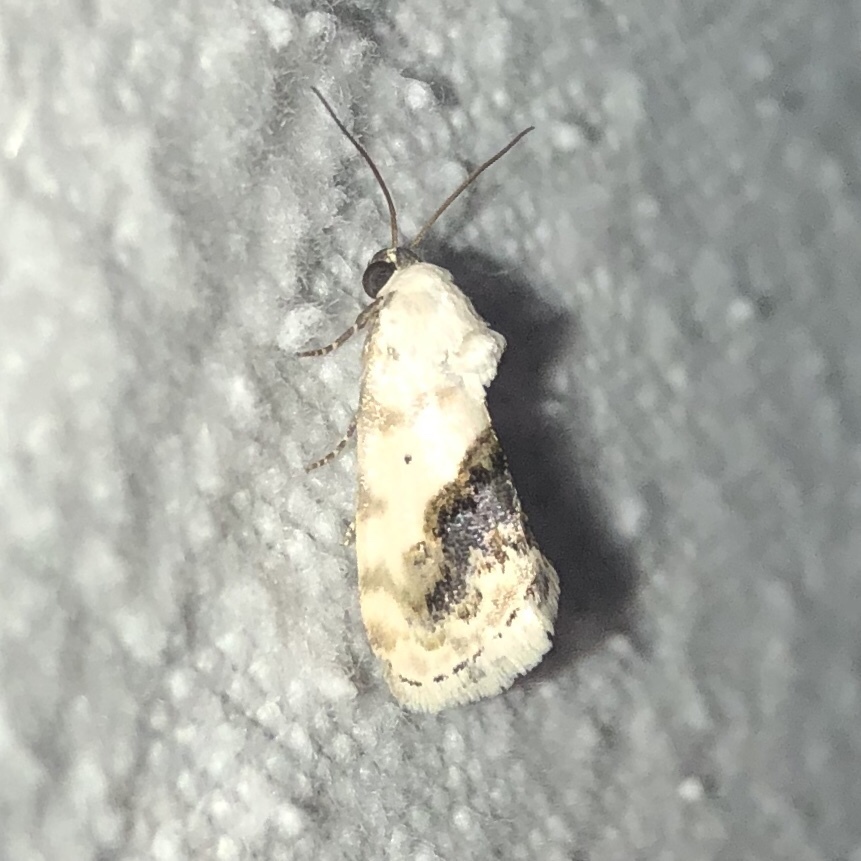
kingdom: Animalia
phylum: Arthropoda
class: Insecta
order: Lepidoptera
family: Noctuidae
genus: Acontia
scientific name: Acontia erastrioides
